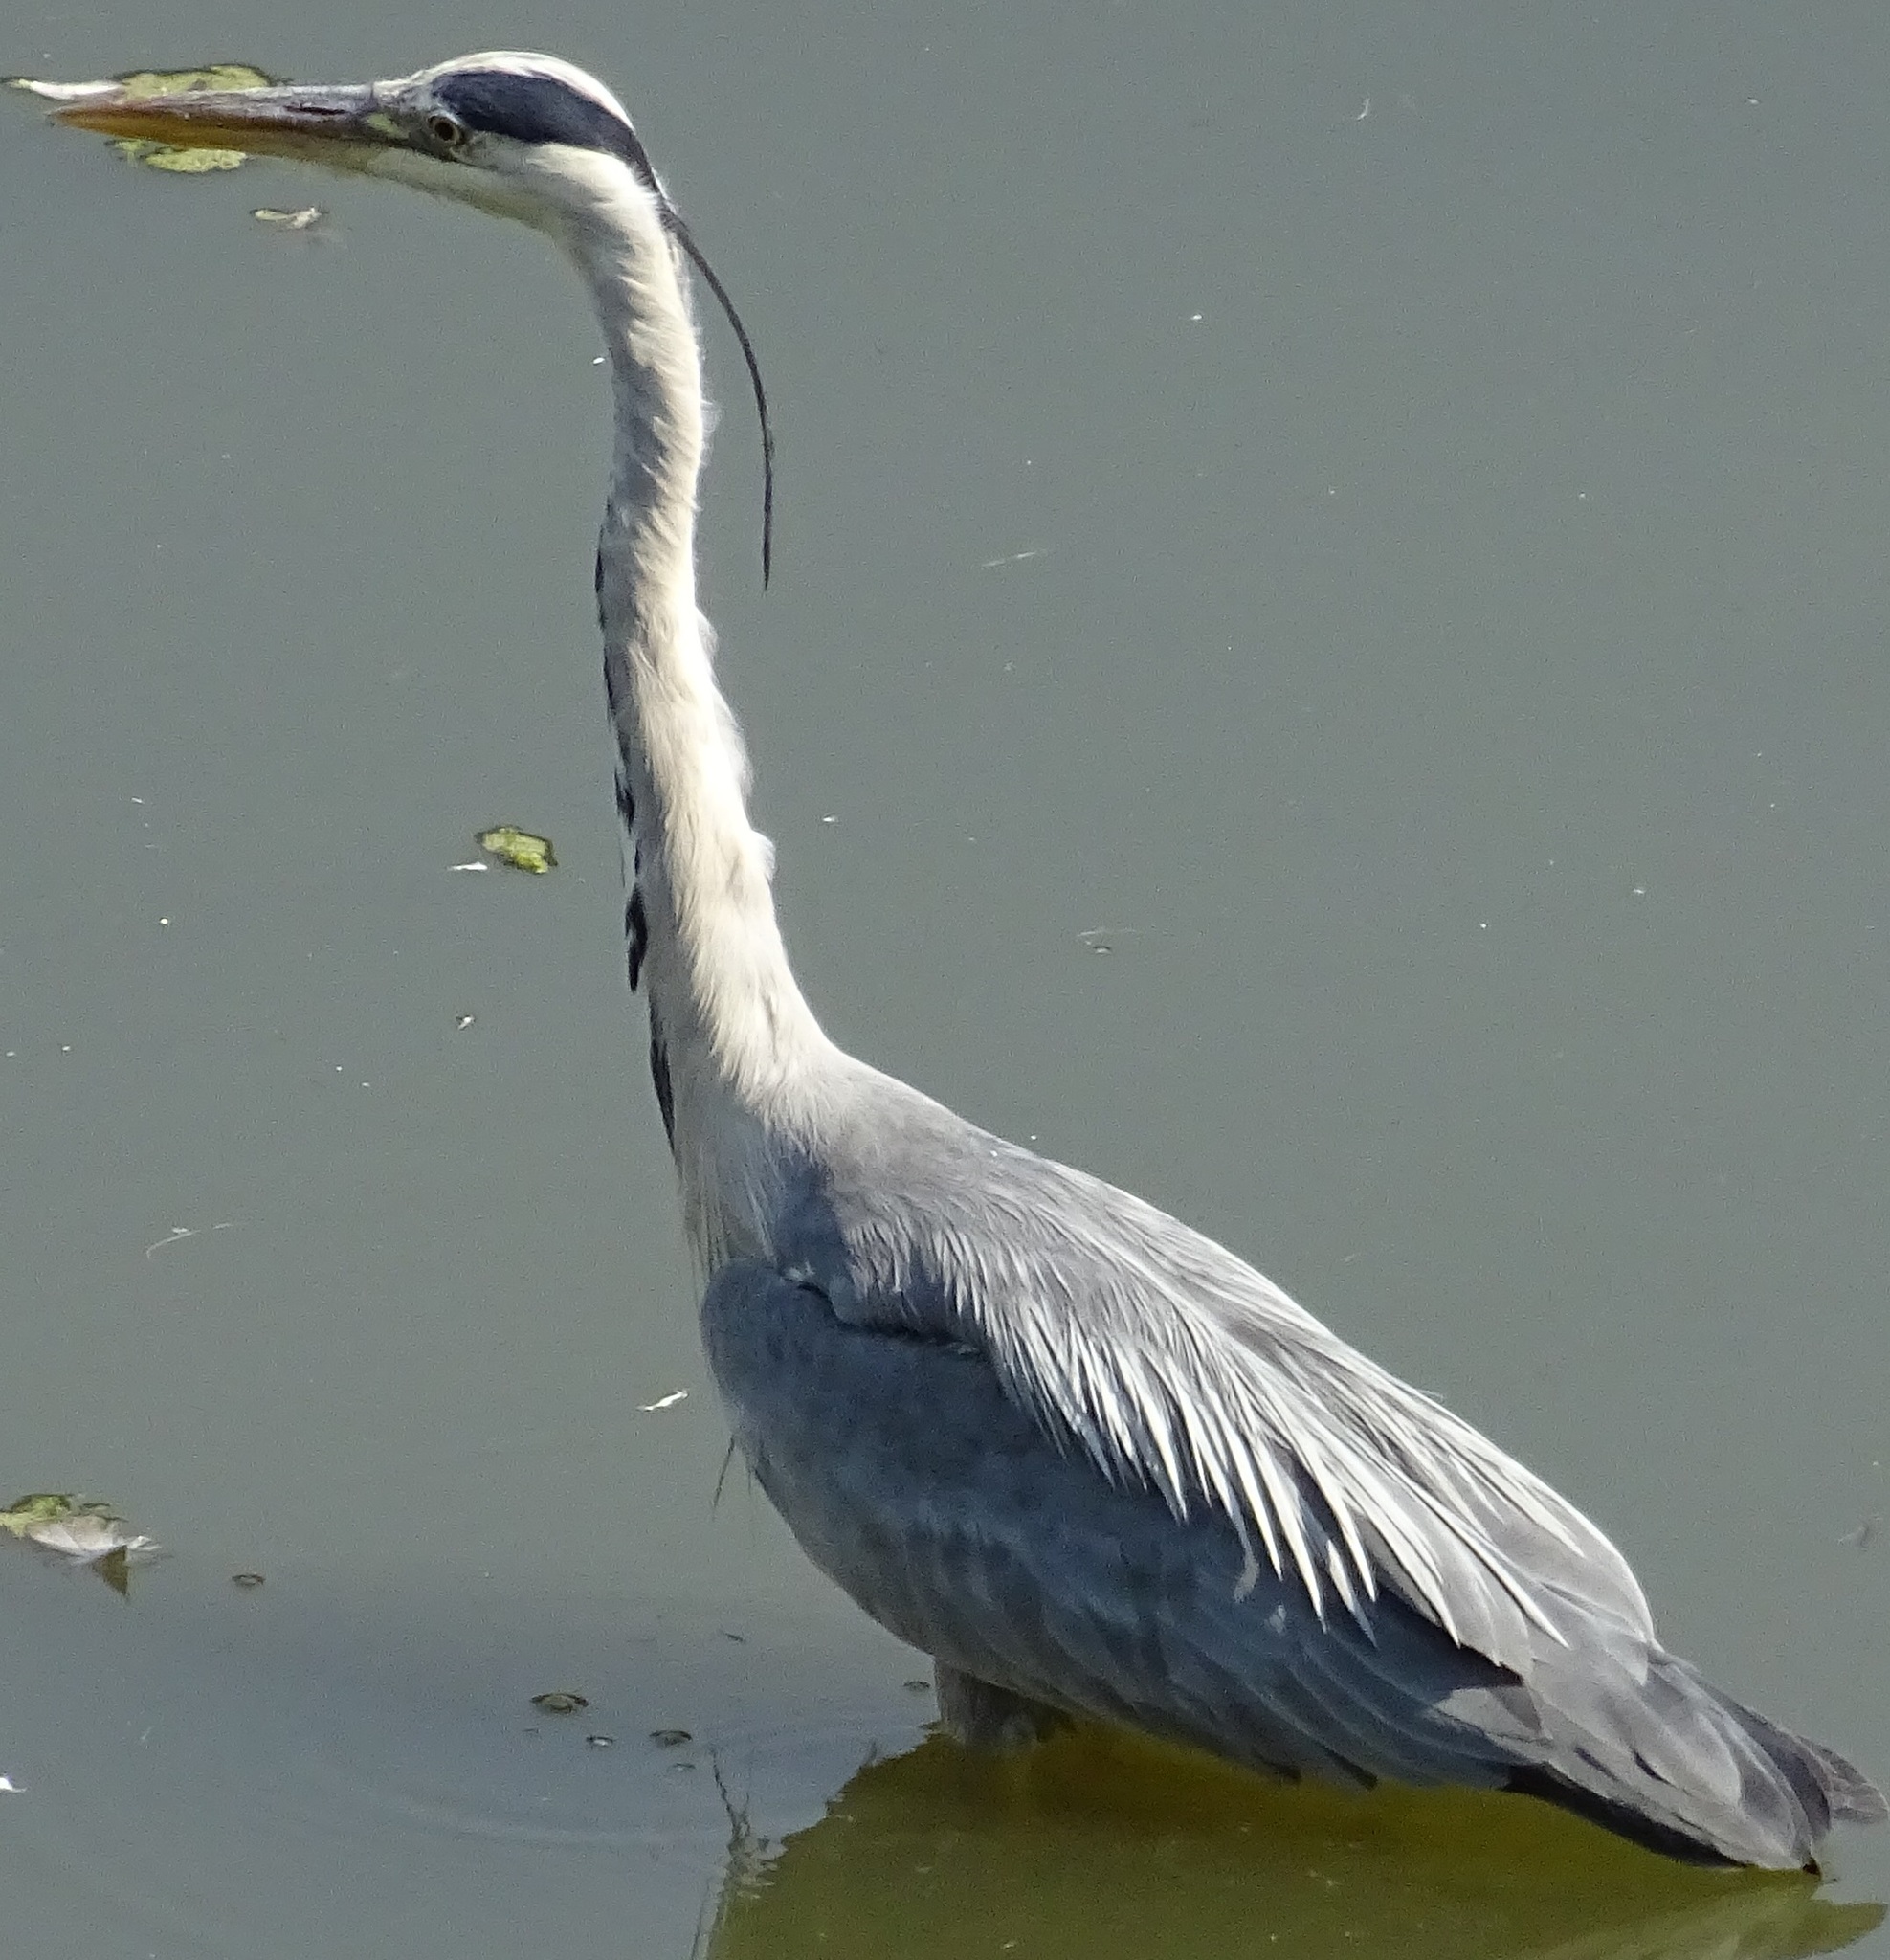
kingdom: Animalia
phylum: Chordata
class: Aves
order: Pelecaniformes
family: Ardeidae
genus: Ardea
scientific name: Ardea cinerea
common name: Grey heron
